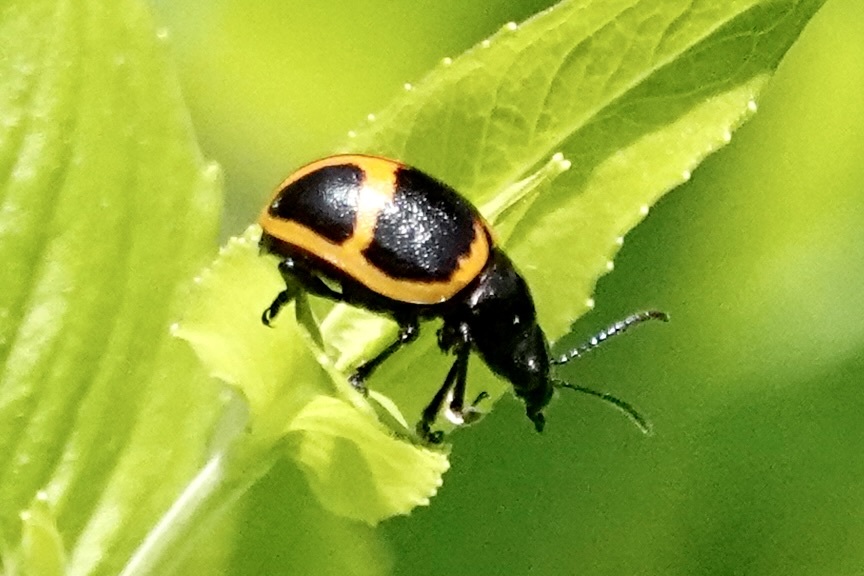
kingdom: Animalia
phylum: Arthropoda
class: Insecta
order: Coleoptera
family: Chrysomelidae
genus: Labidomera
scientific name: Labidomera clivicollis
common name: Swamp milkweed leaf beetle
